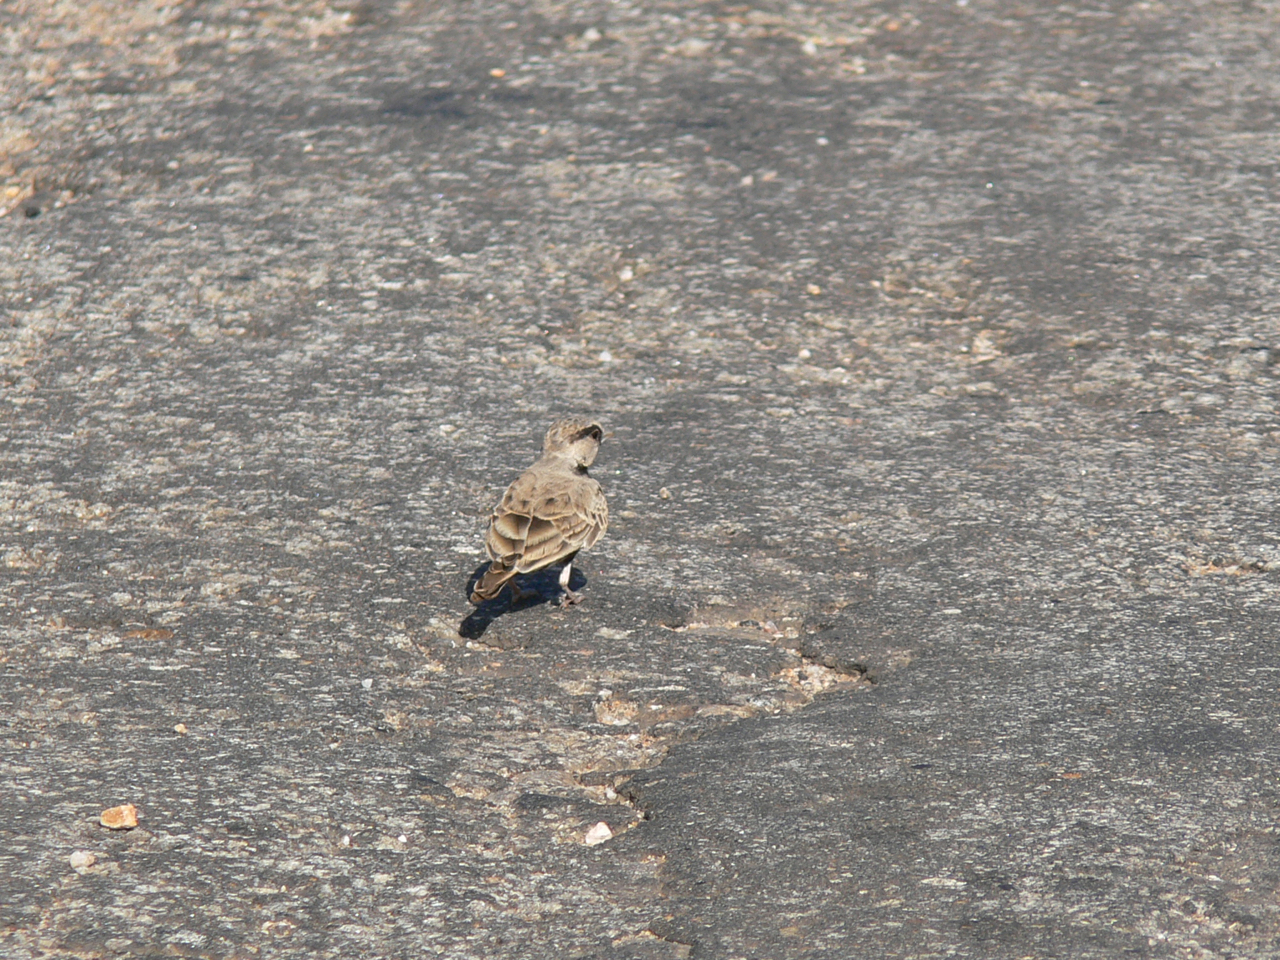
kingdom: Animalia
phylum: Chordata
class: Aves
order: Passeriformes
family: Alaudidae
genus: Eremopterix
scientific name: Eremopterix griseus
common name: Ashy-crowned sparrow-lark
